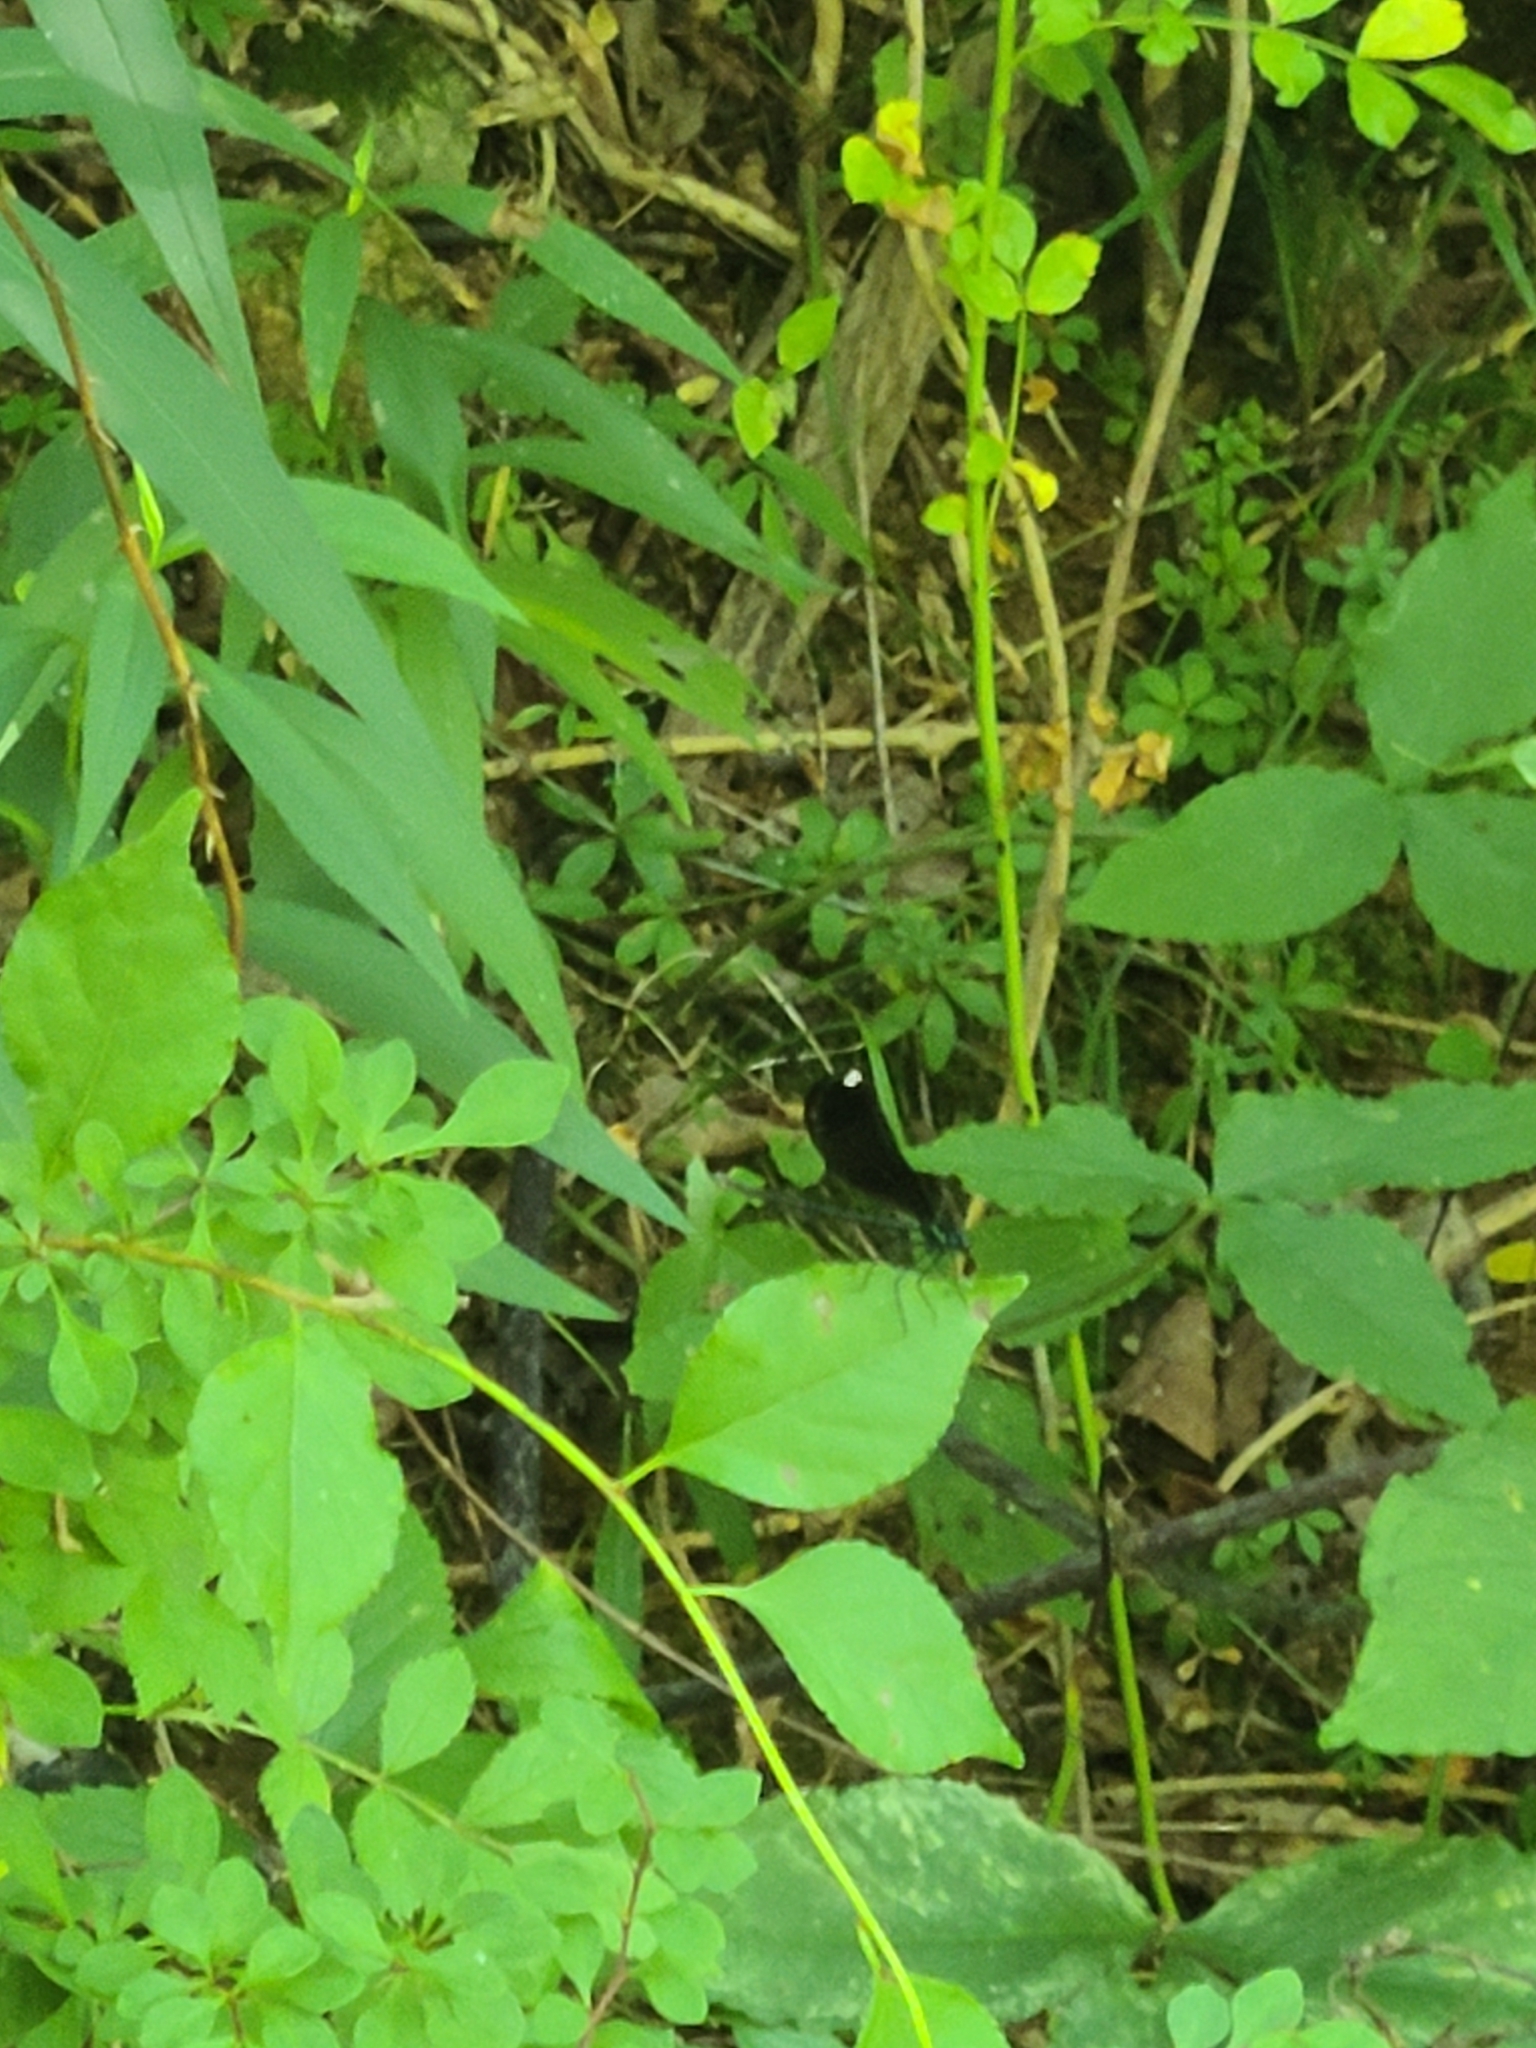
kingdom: Animalia
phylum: Arthropoda
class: Insecta
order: Odonata
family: Calopterygidae
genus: Calopteryx
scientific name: Calopteryx maculata
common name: Ebony jewelwing
